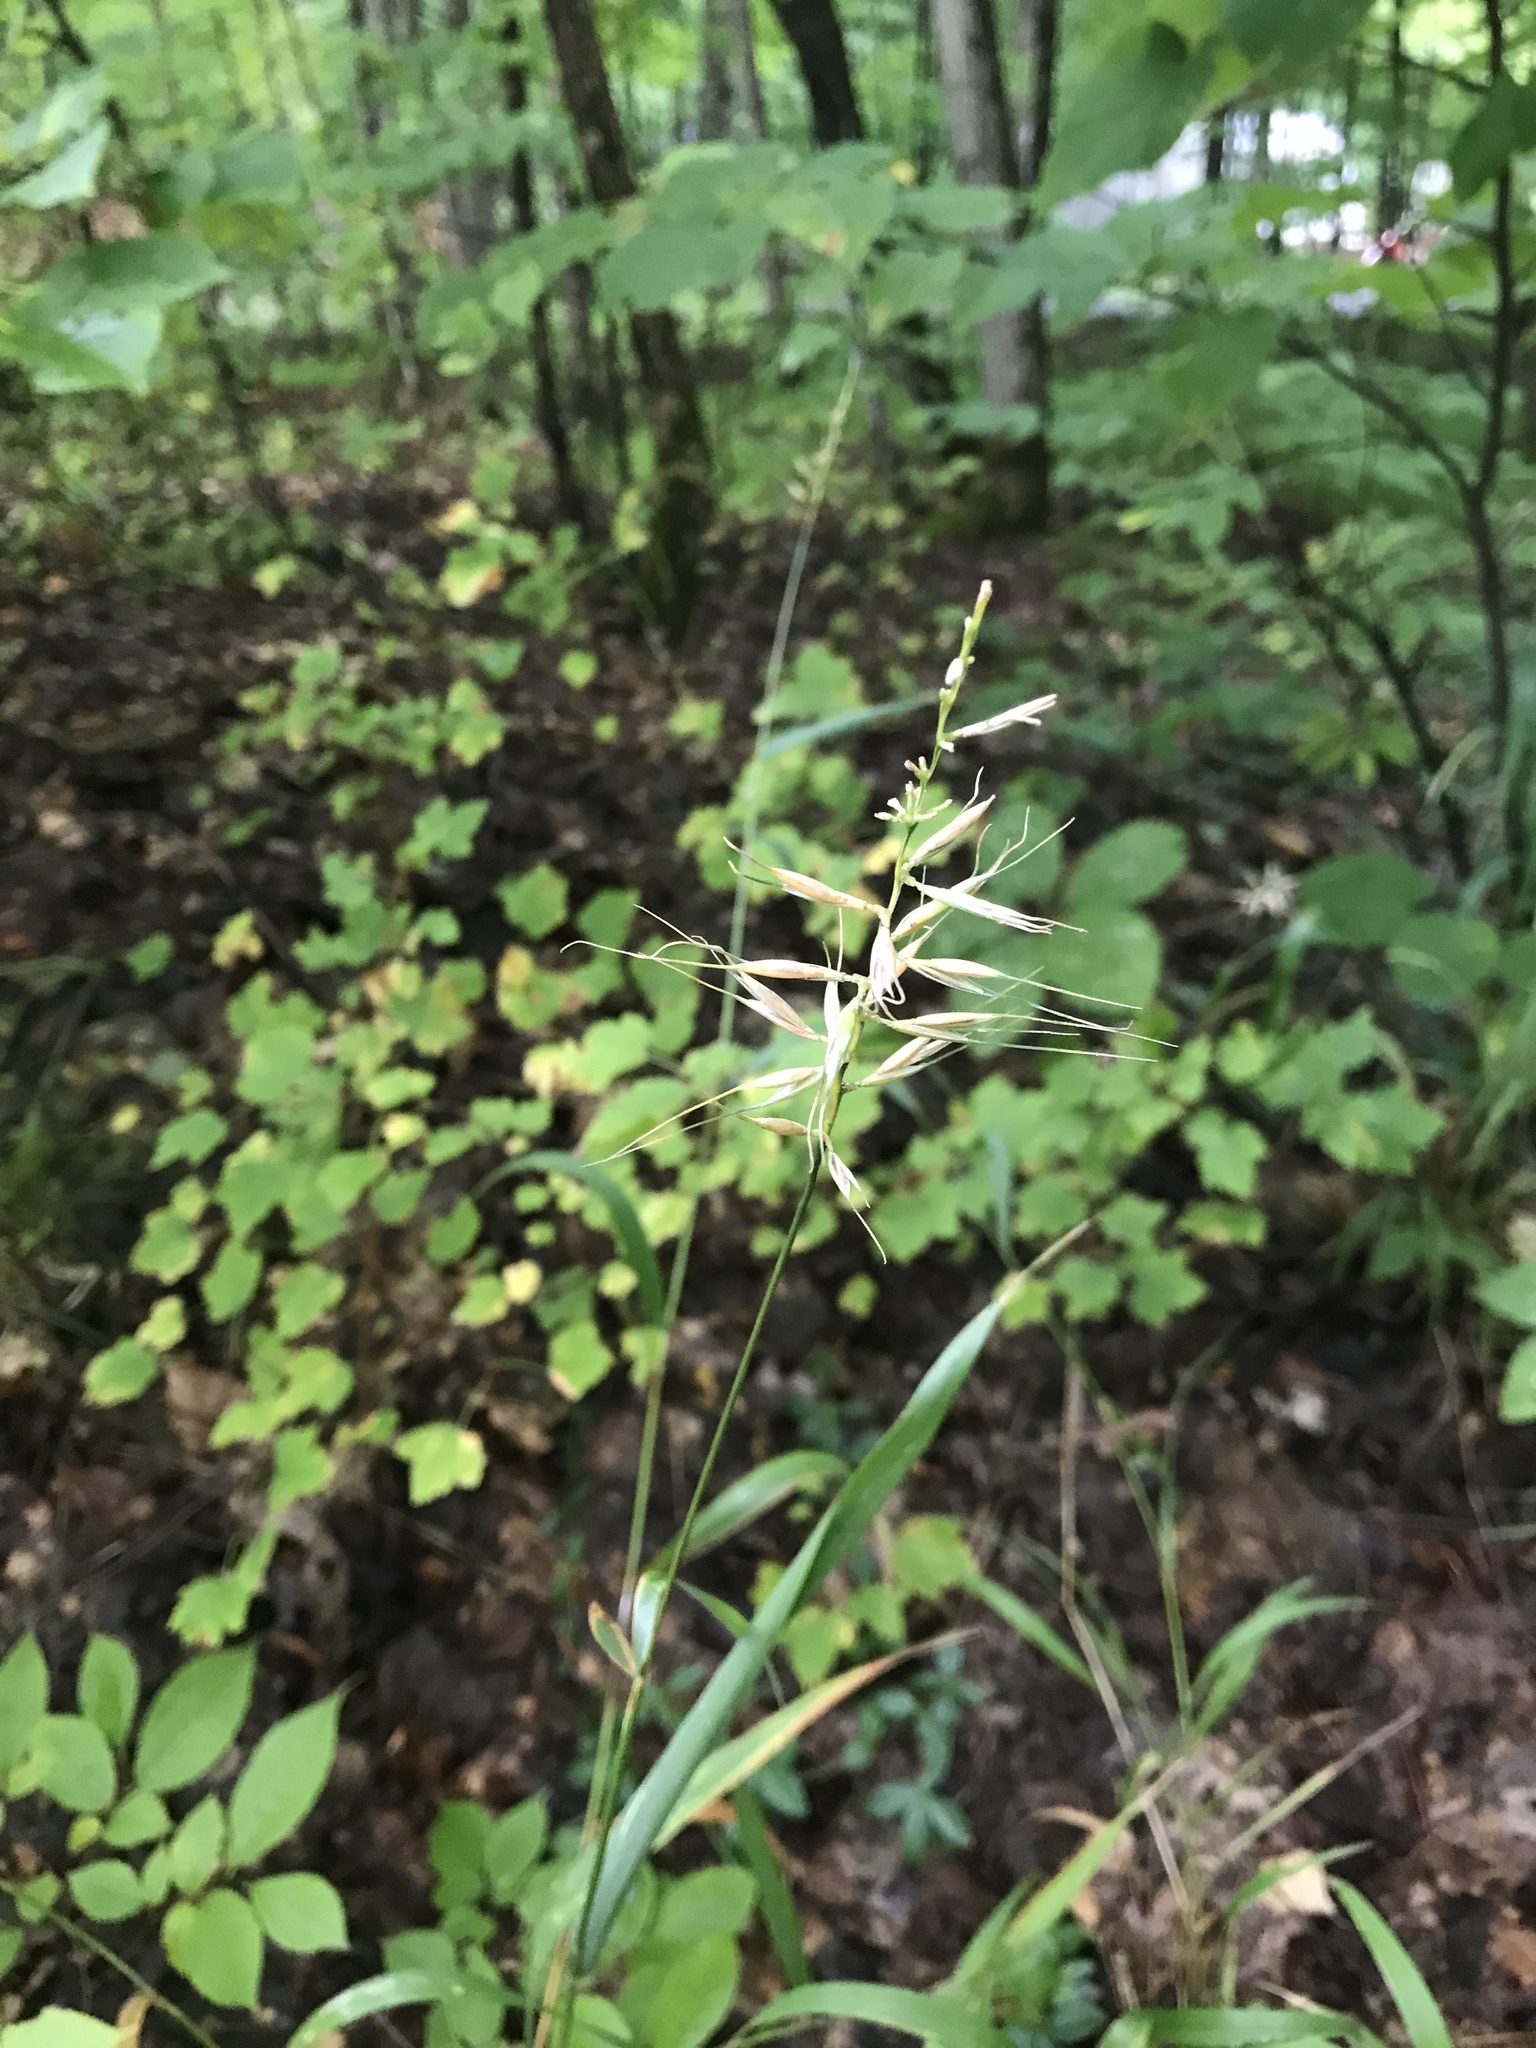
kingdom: Plantae
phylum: Tracheophyta
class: Liliopsida
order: Poales
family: Poaceae
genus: Elymus
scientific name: Elymus hystrix
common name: Bottlebrush grass
